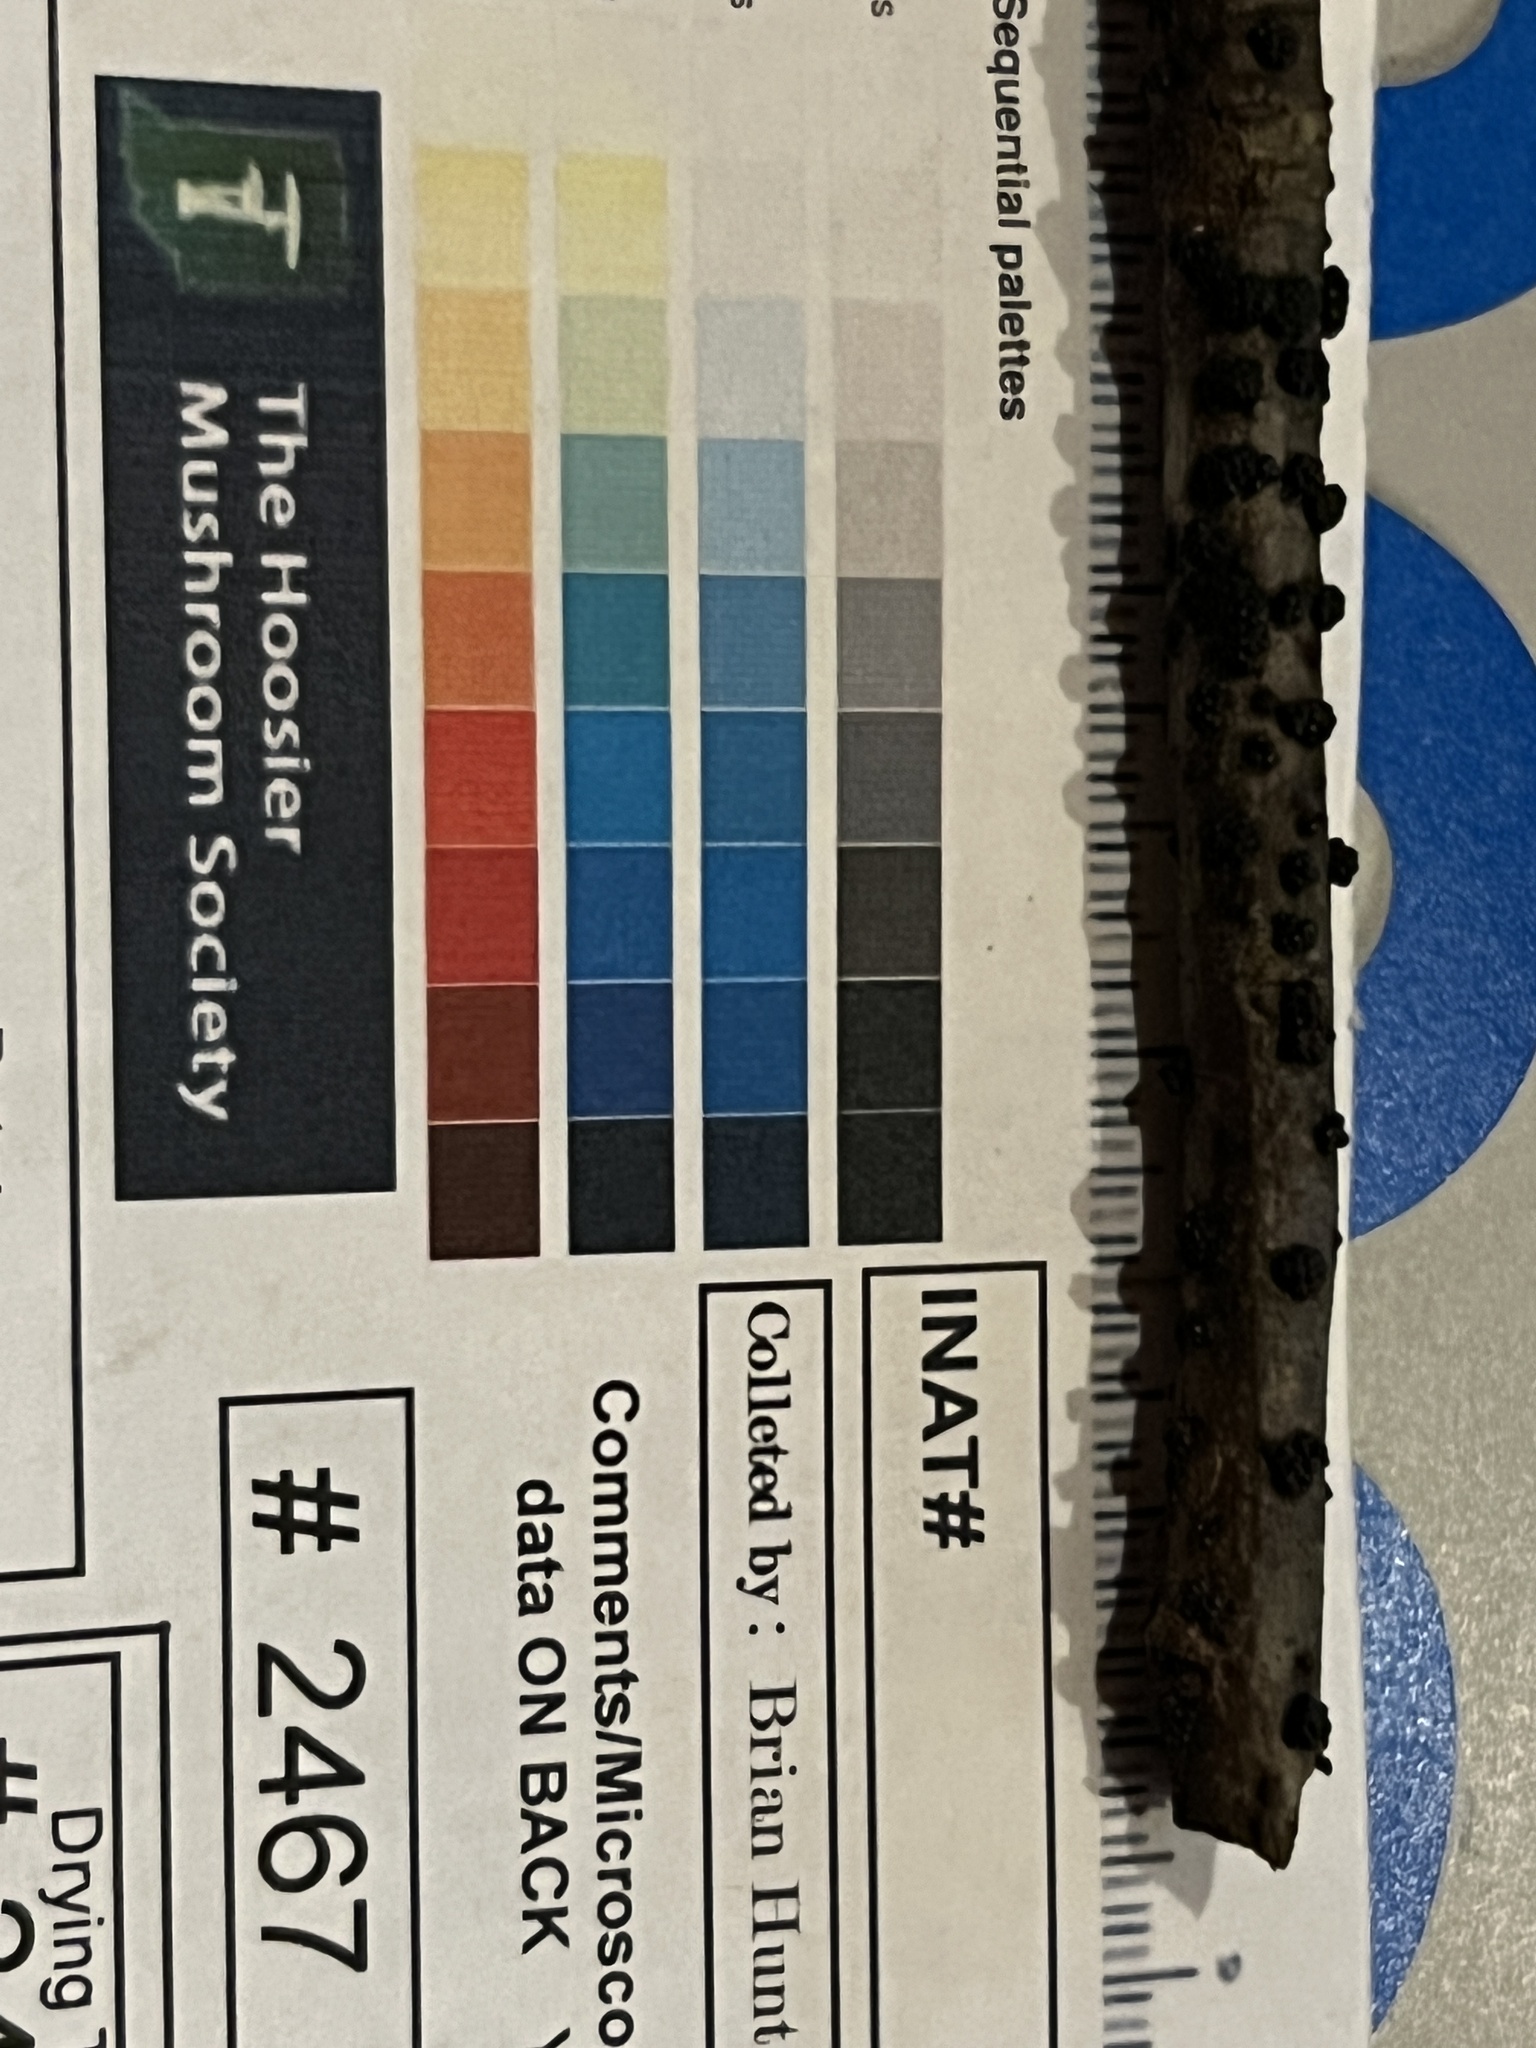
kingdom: Fungi
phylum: Ascomycota
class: Sordariomycetes
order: Xylariales
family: Hypoxylaceae
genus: Annulohypoxylon
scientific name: Annulohypoxylon annulatum
